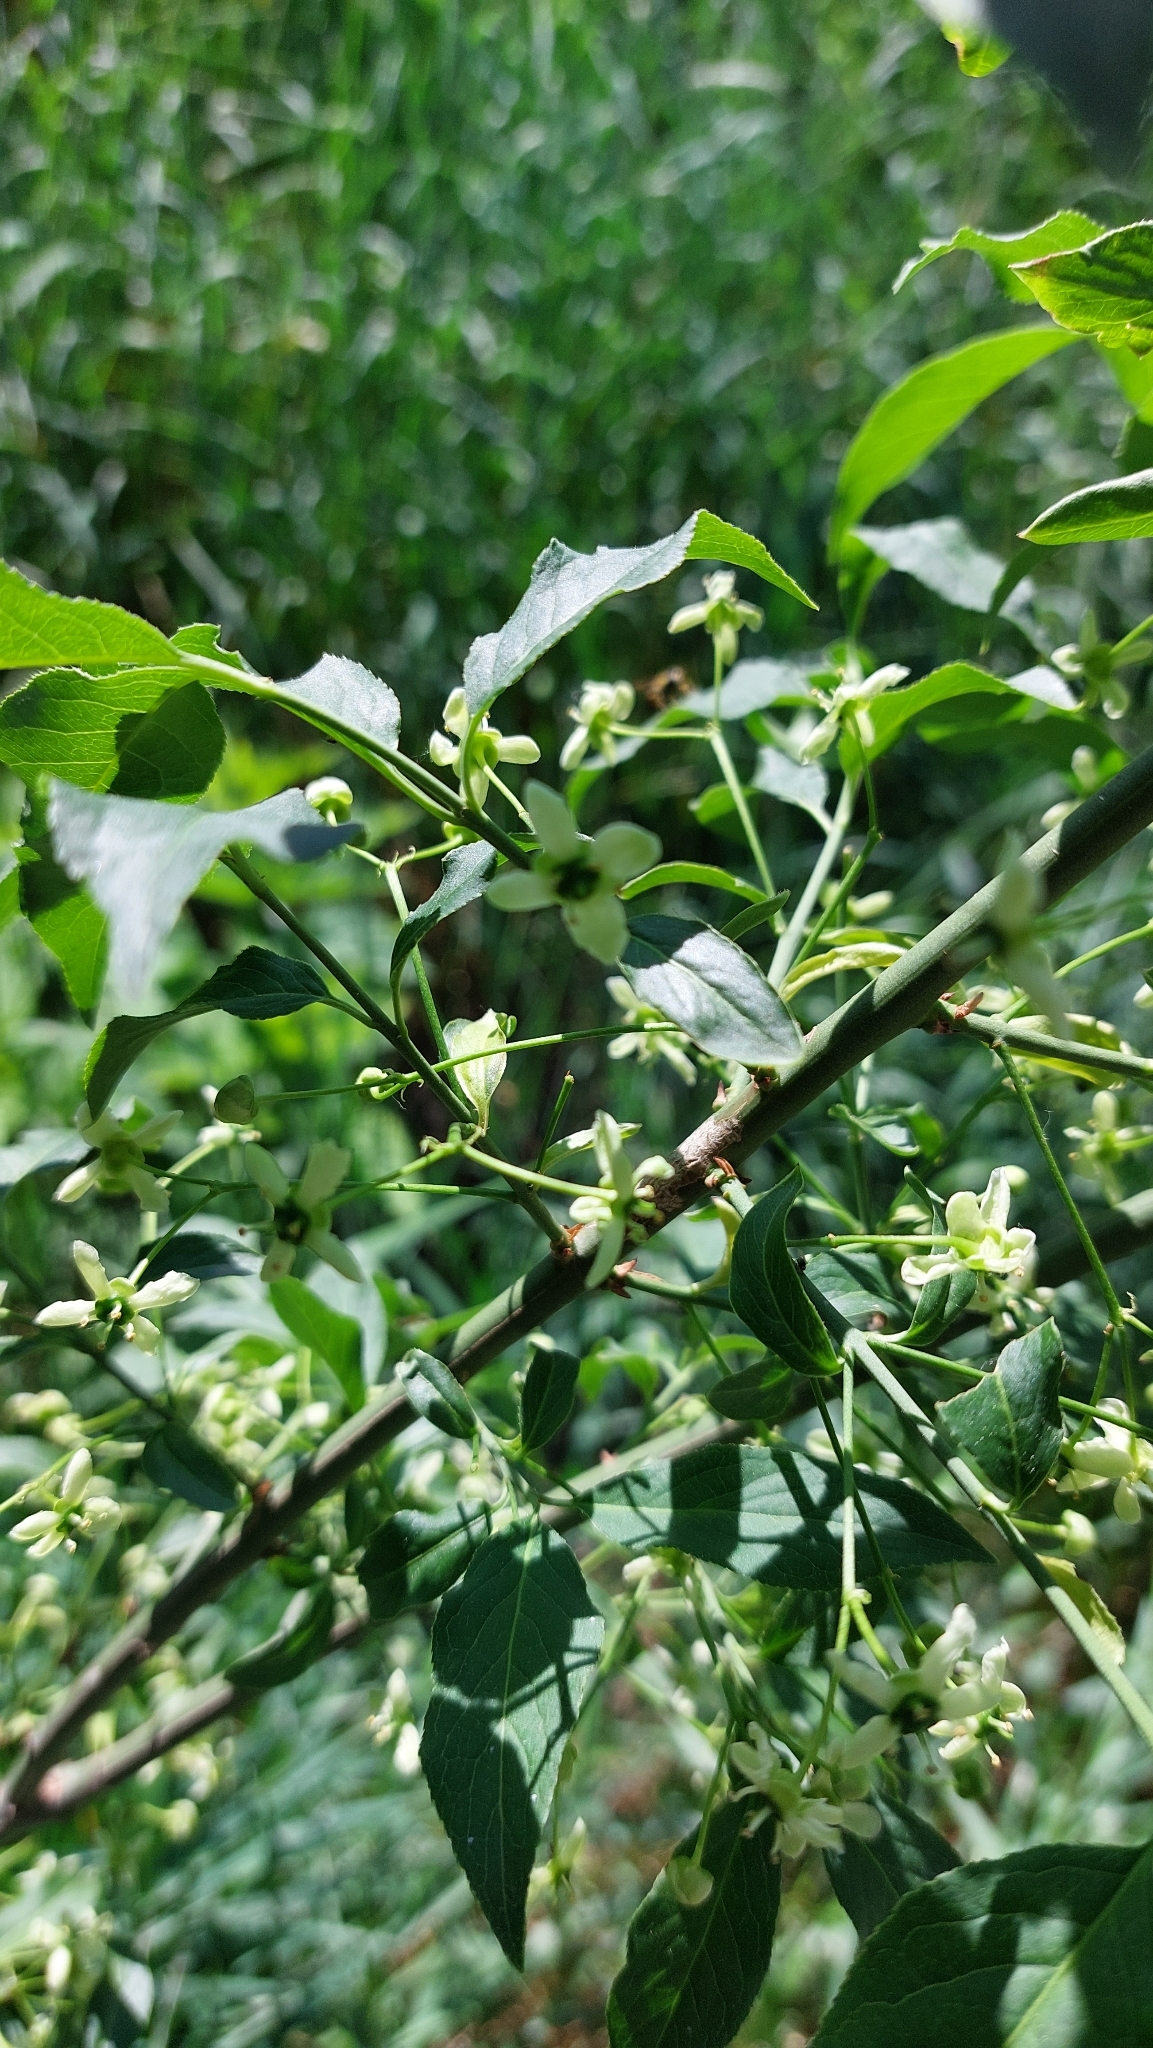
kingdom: Plantae
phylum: Tracheophyta
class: Magnoliopsida
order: Celastrales
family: Celastraceae
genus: Euonymus
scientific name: Euonymus europaeus
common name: Spindle
